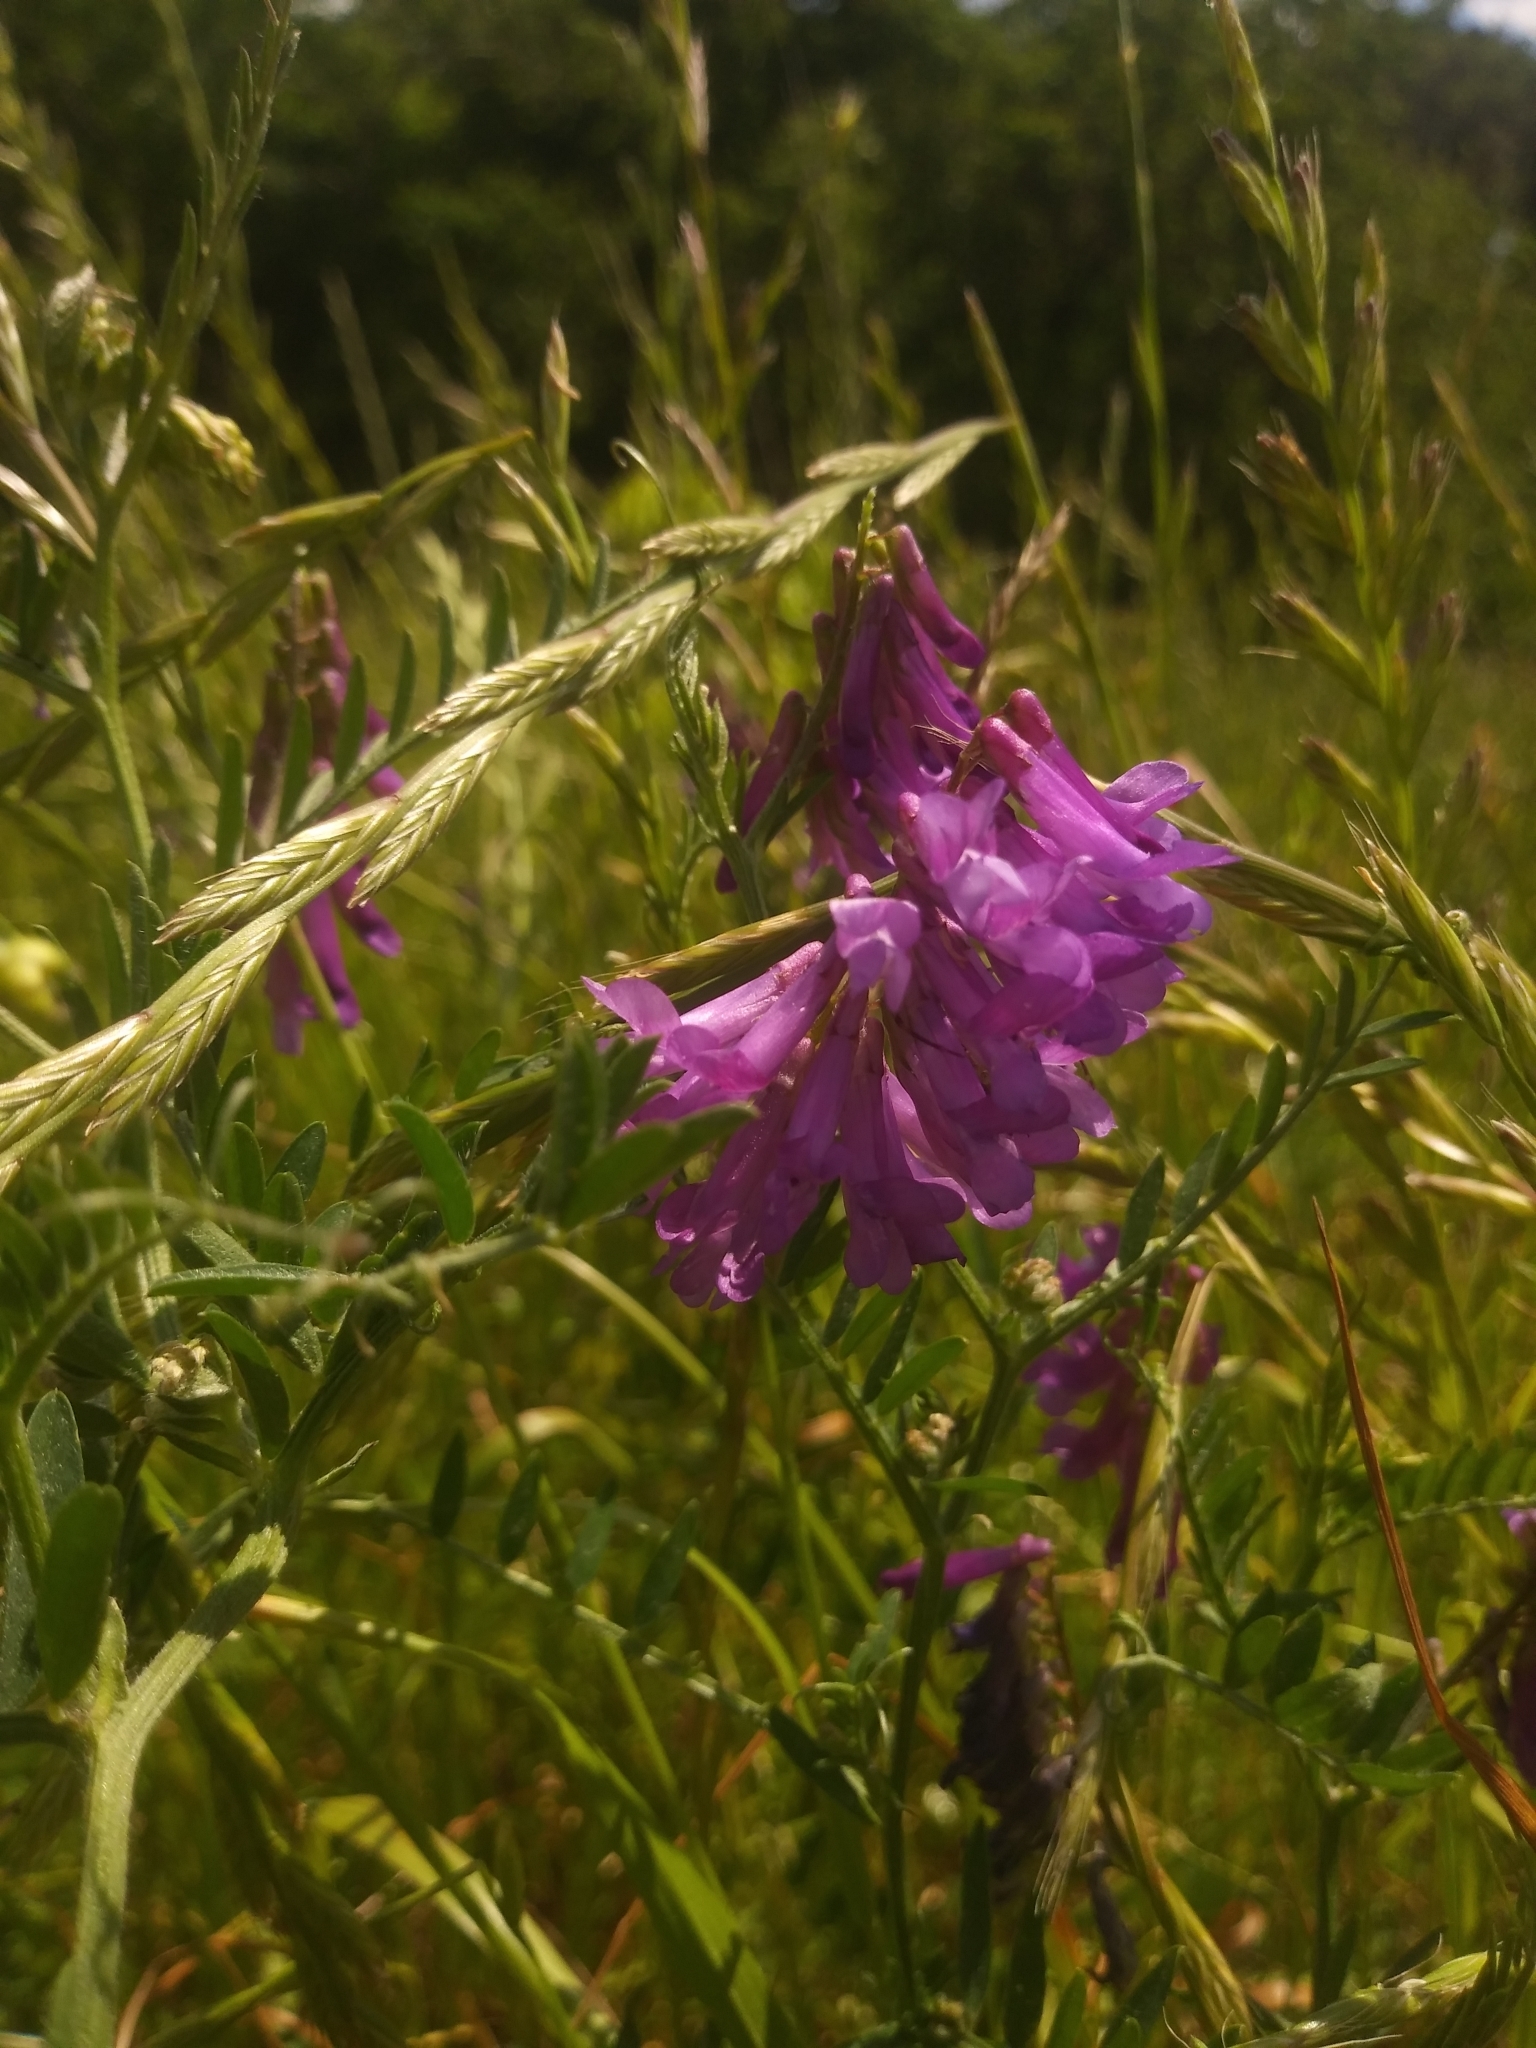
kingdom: Plantae
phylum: Tracheophyta
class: Magnoliopsida
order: Fabales
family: Fabaceae
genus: Vicia
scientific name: Vicia villosa
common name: Fodder vetch
